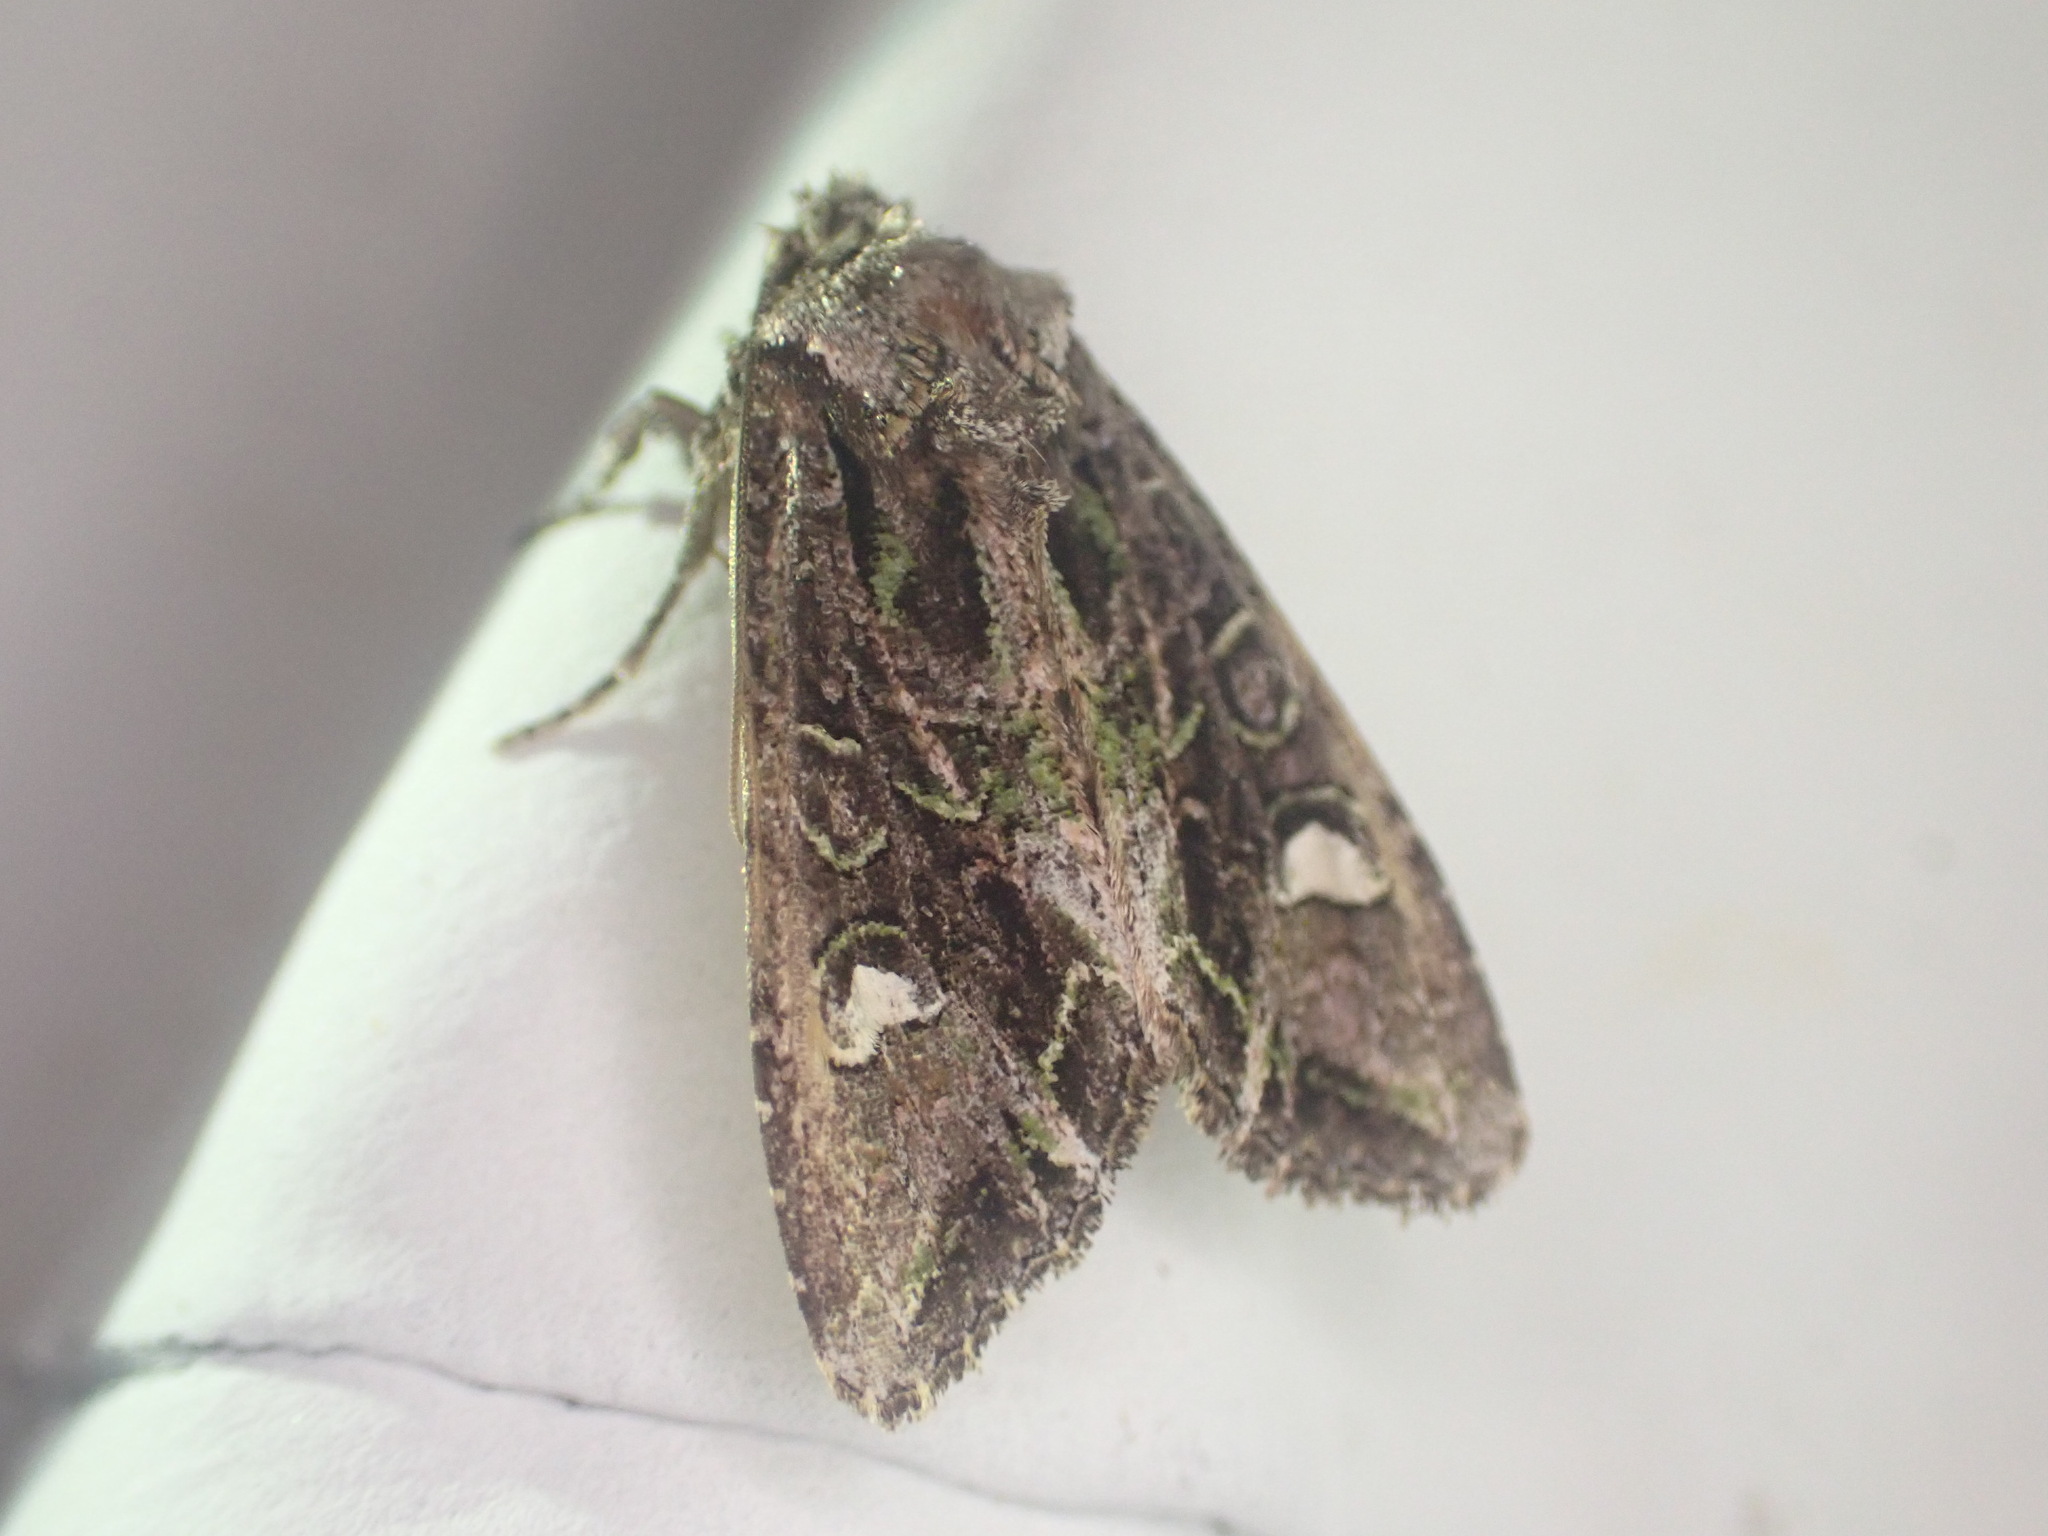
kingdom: Animalia
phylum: Arthropoda
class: Insecta
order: Lepidoptera
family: Noctuidae
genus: Ichneutica
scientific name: Ichneutica insignis
